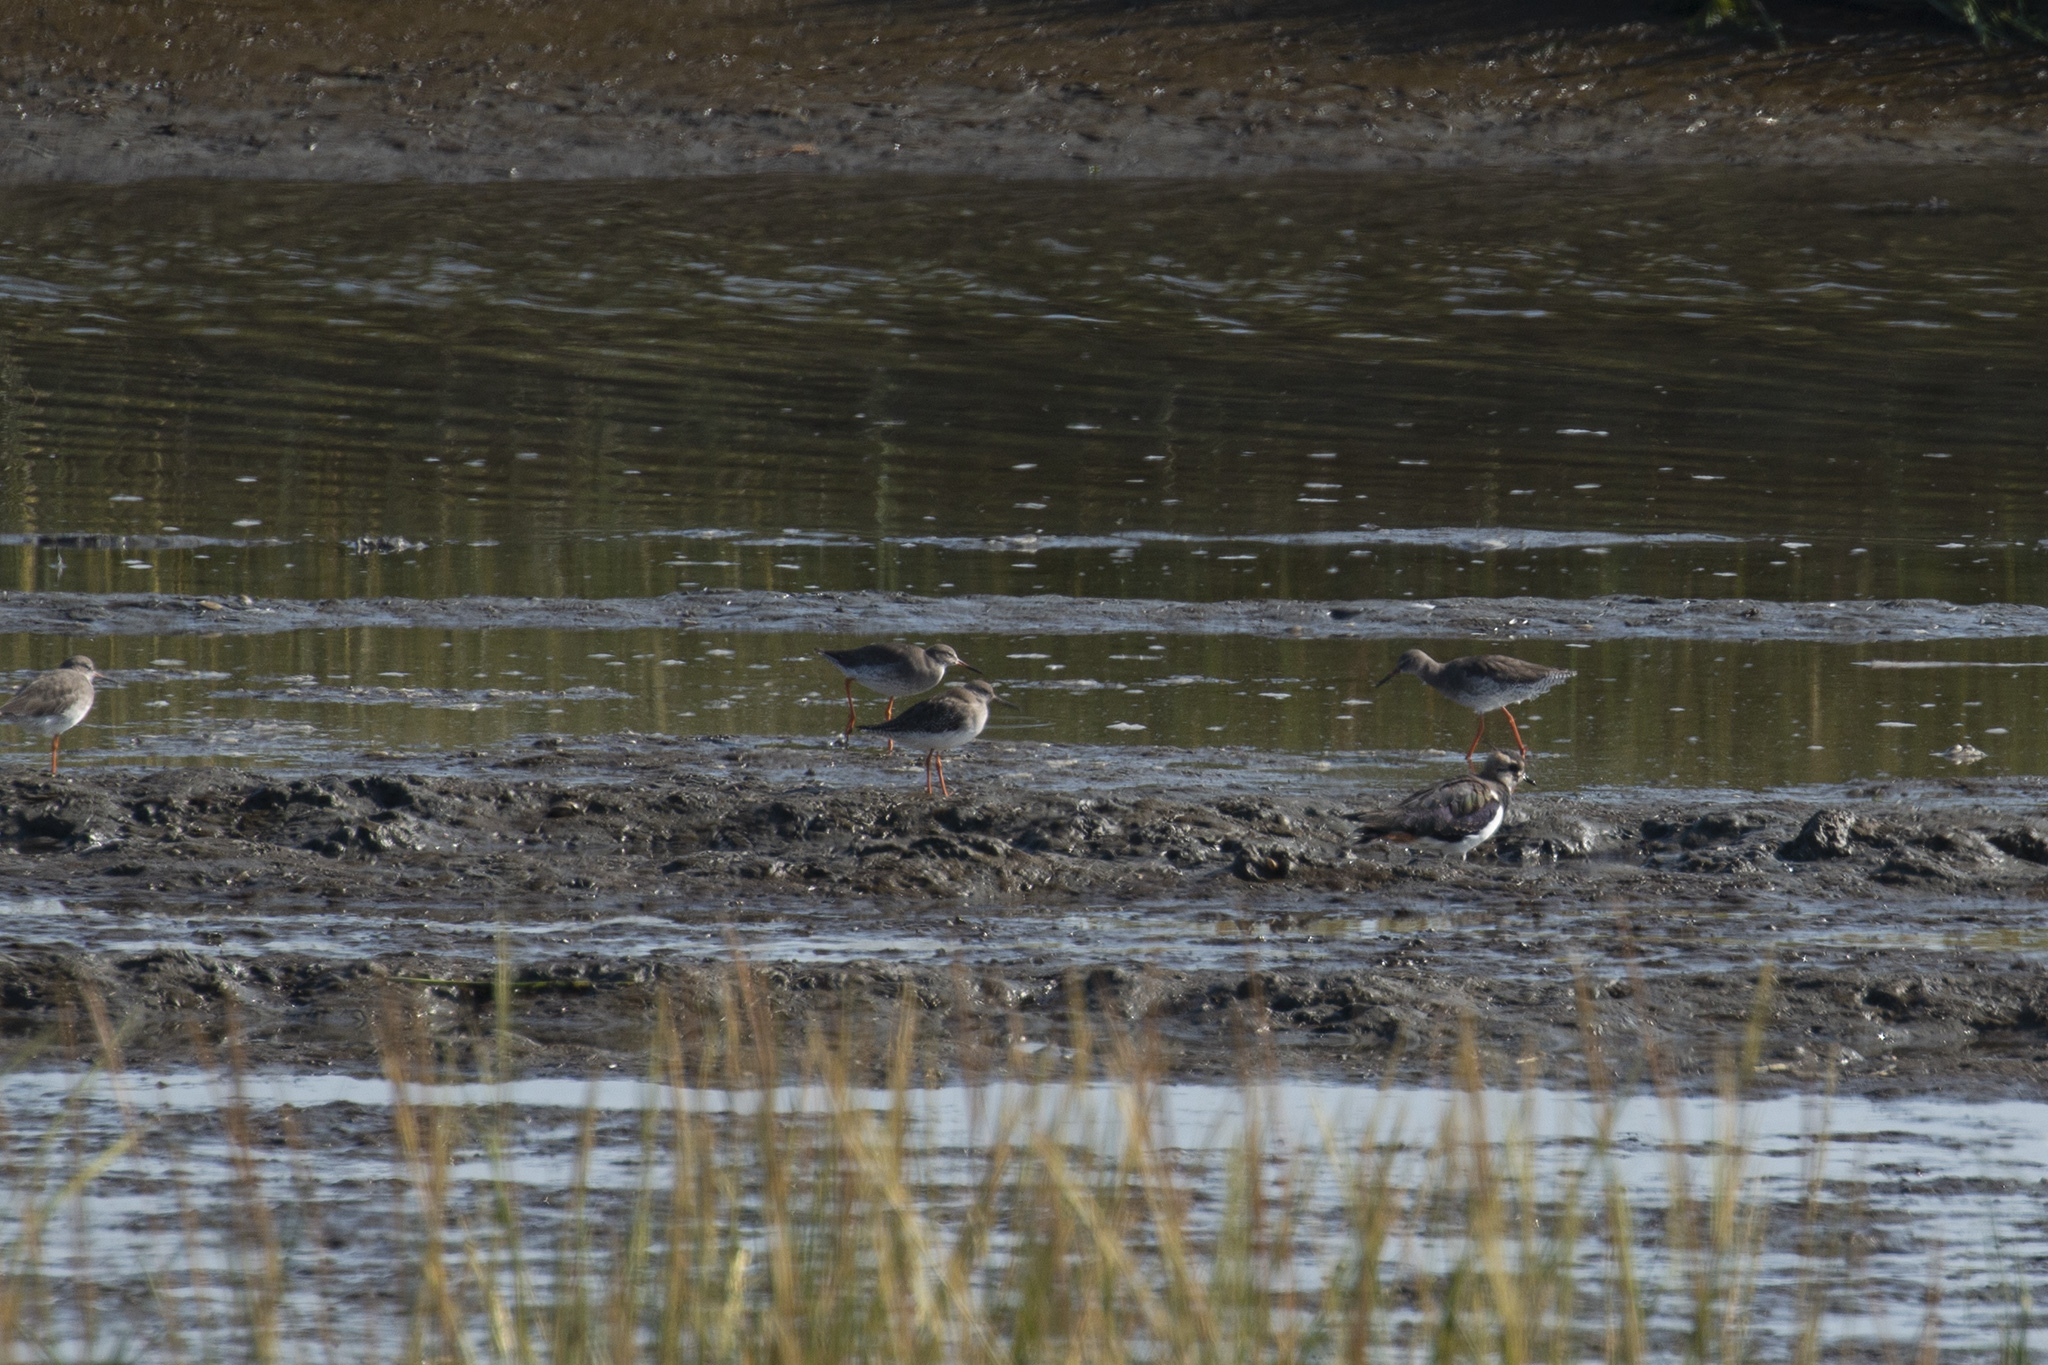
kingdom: Animalia
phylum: Chordata
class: Aves
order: Charadriiformes
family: Scolopacidae
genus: Tringa
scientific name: Tringa totanus
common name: Common redshank
